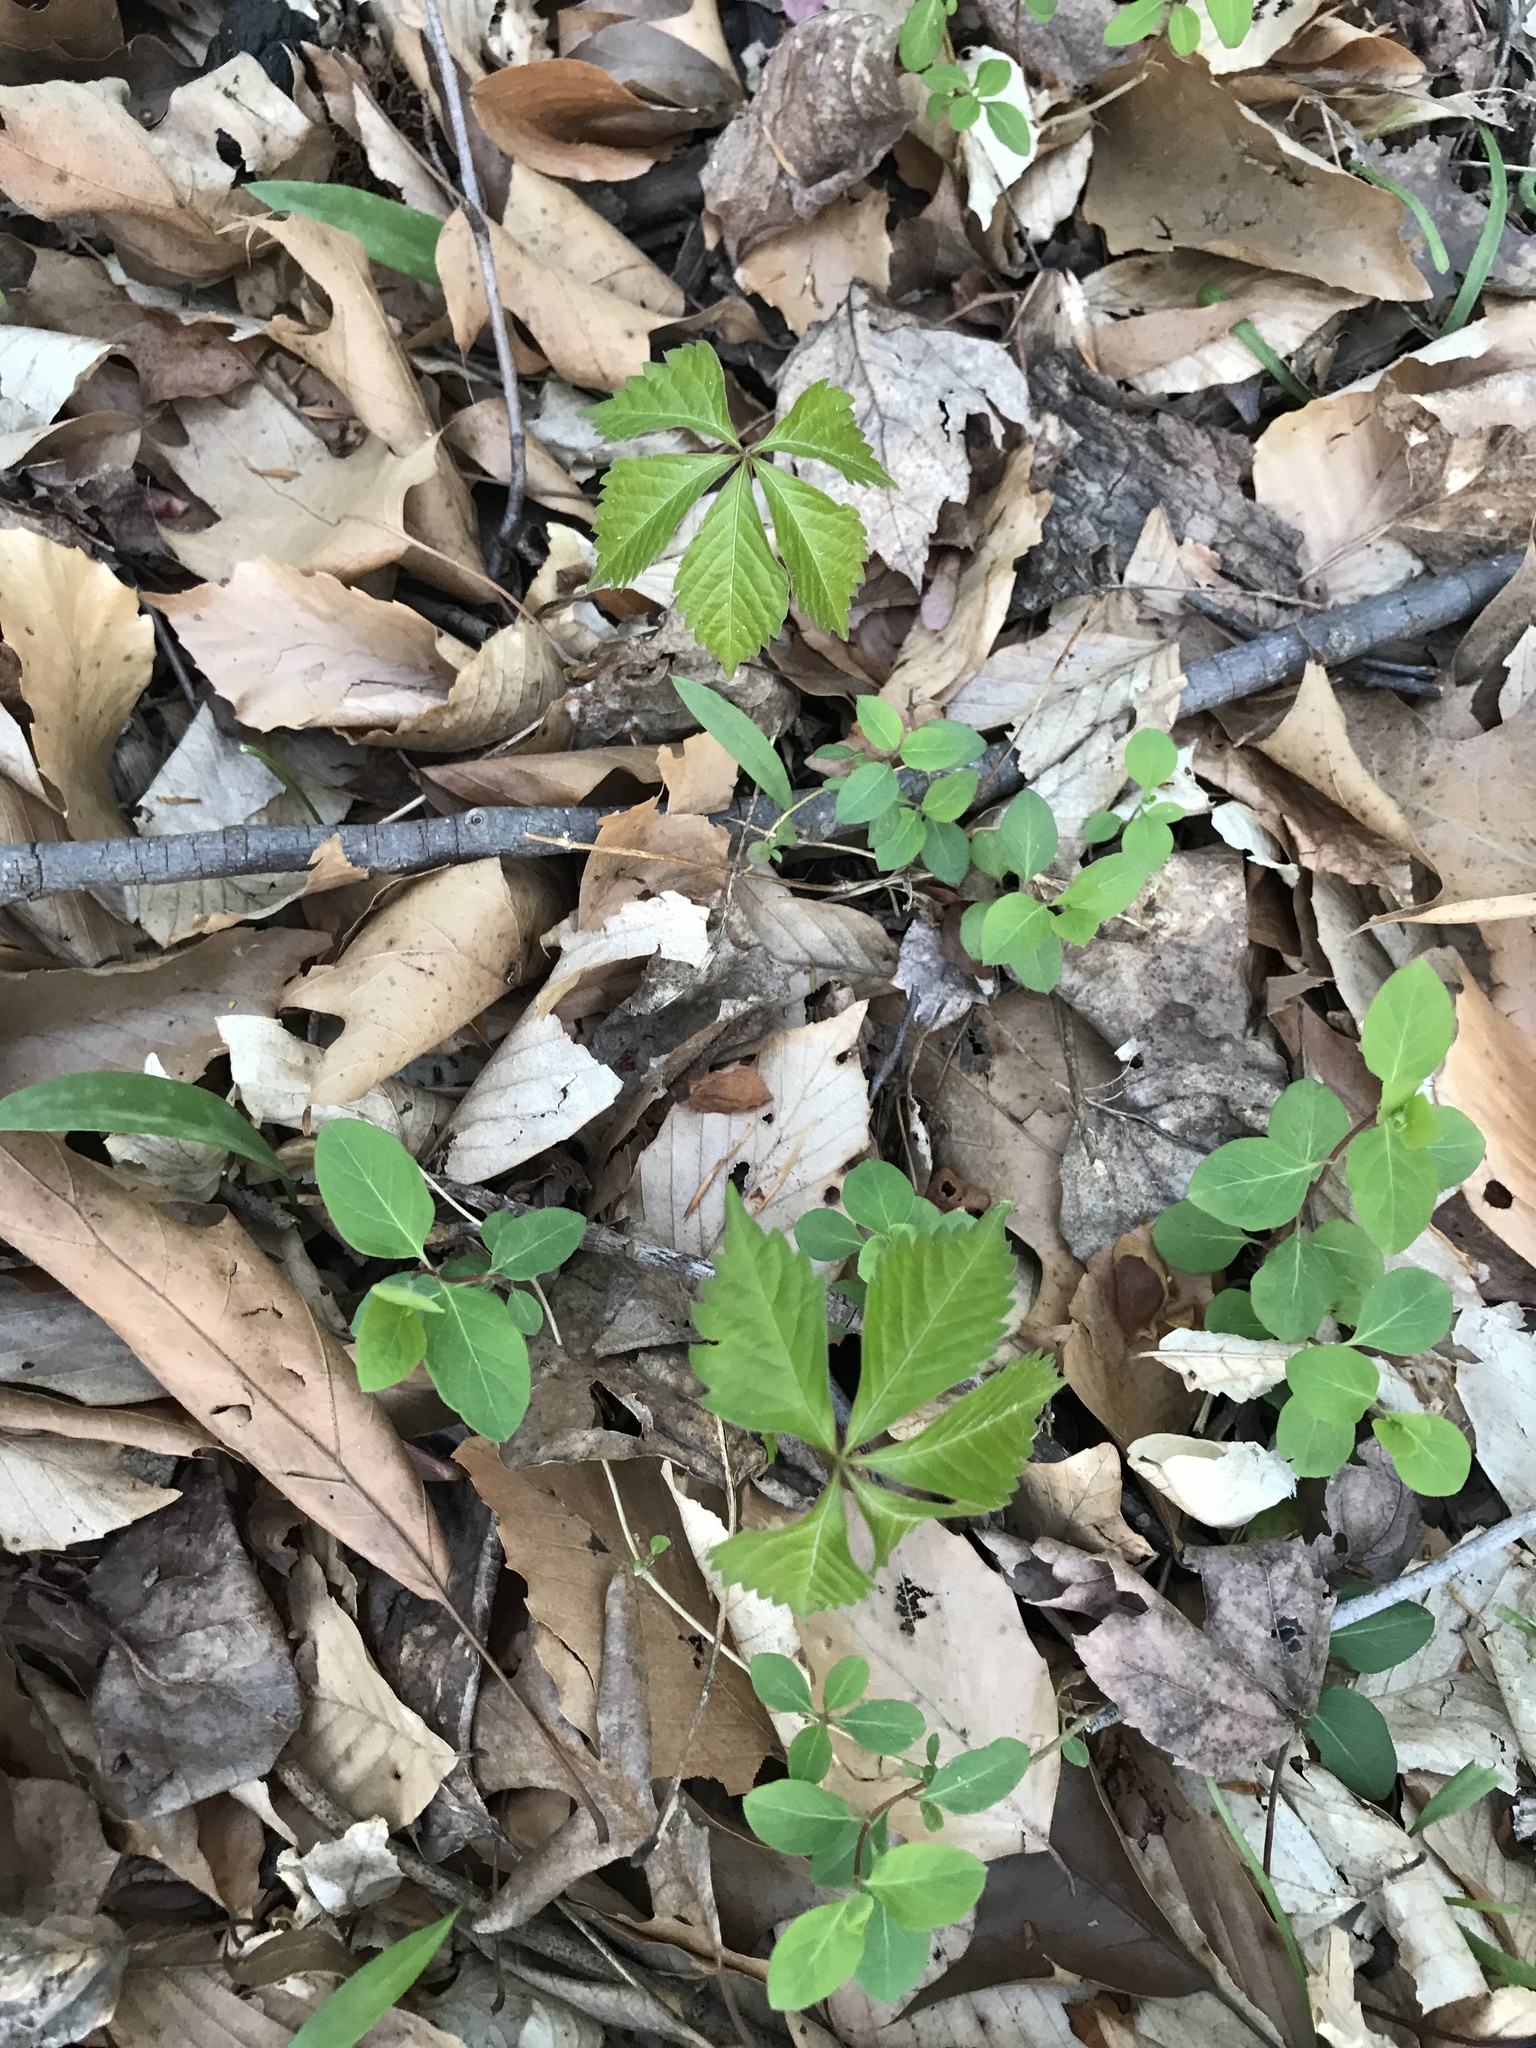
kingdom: Plantae
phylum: Tracheophyta
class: Magnoliopsida
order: Vitales
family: Vitaceae
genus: Parthenocissus
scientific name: Parthenocissus quinquefolia
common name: Virginia-creeper
